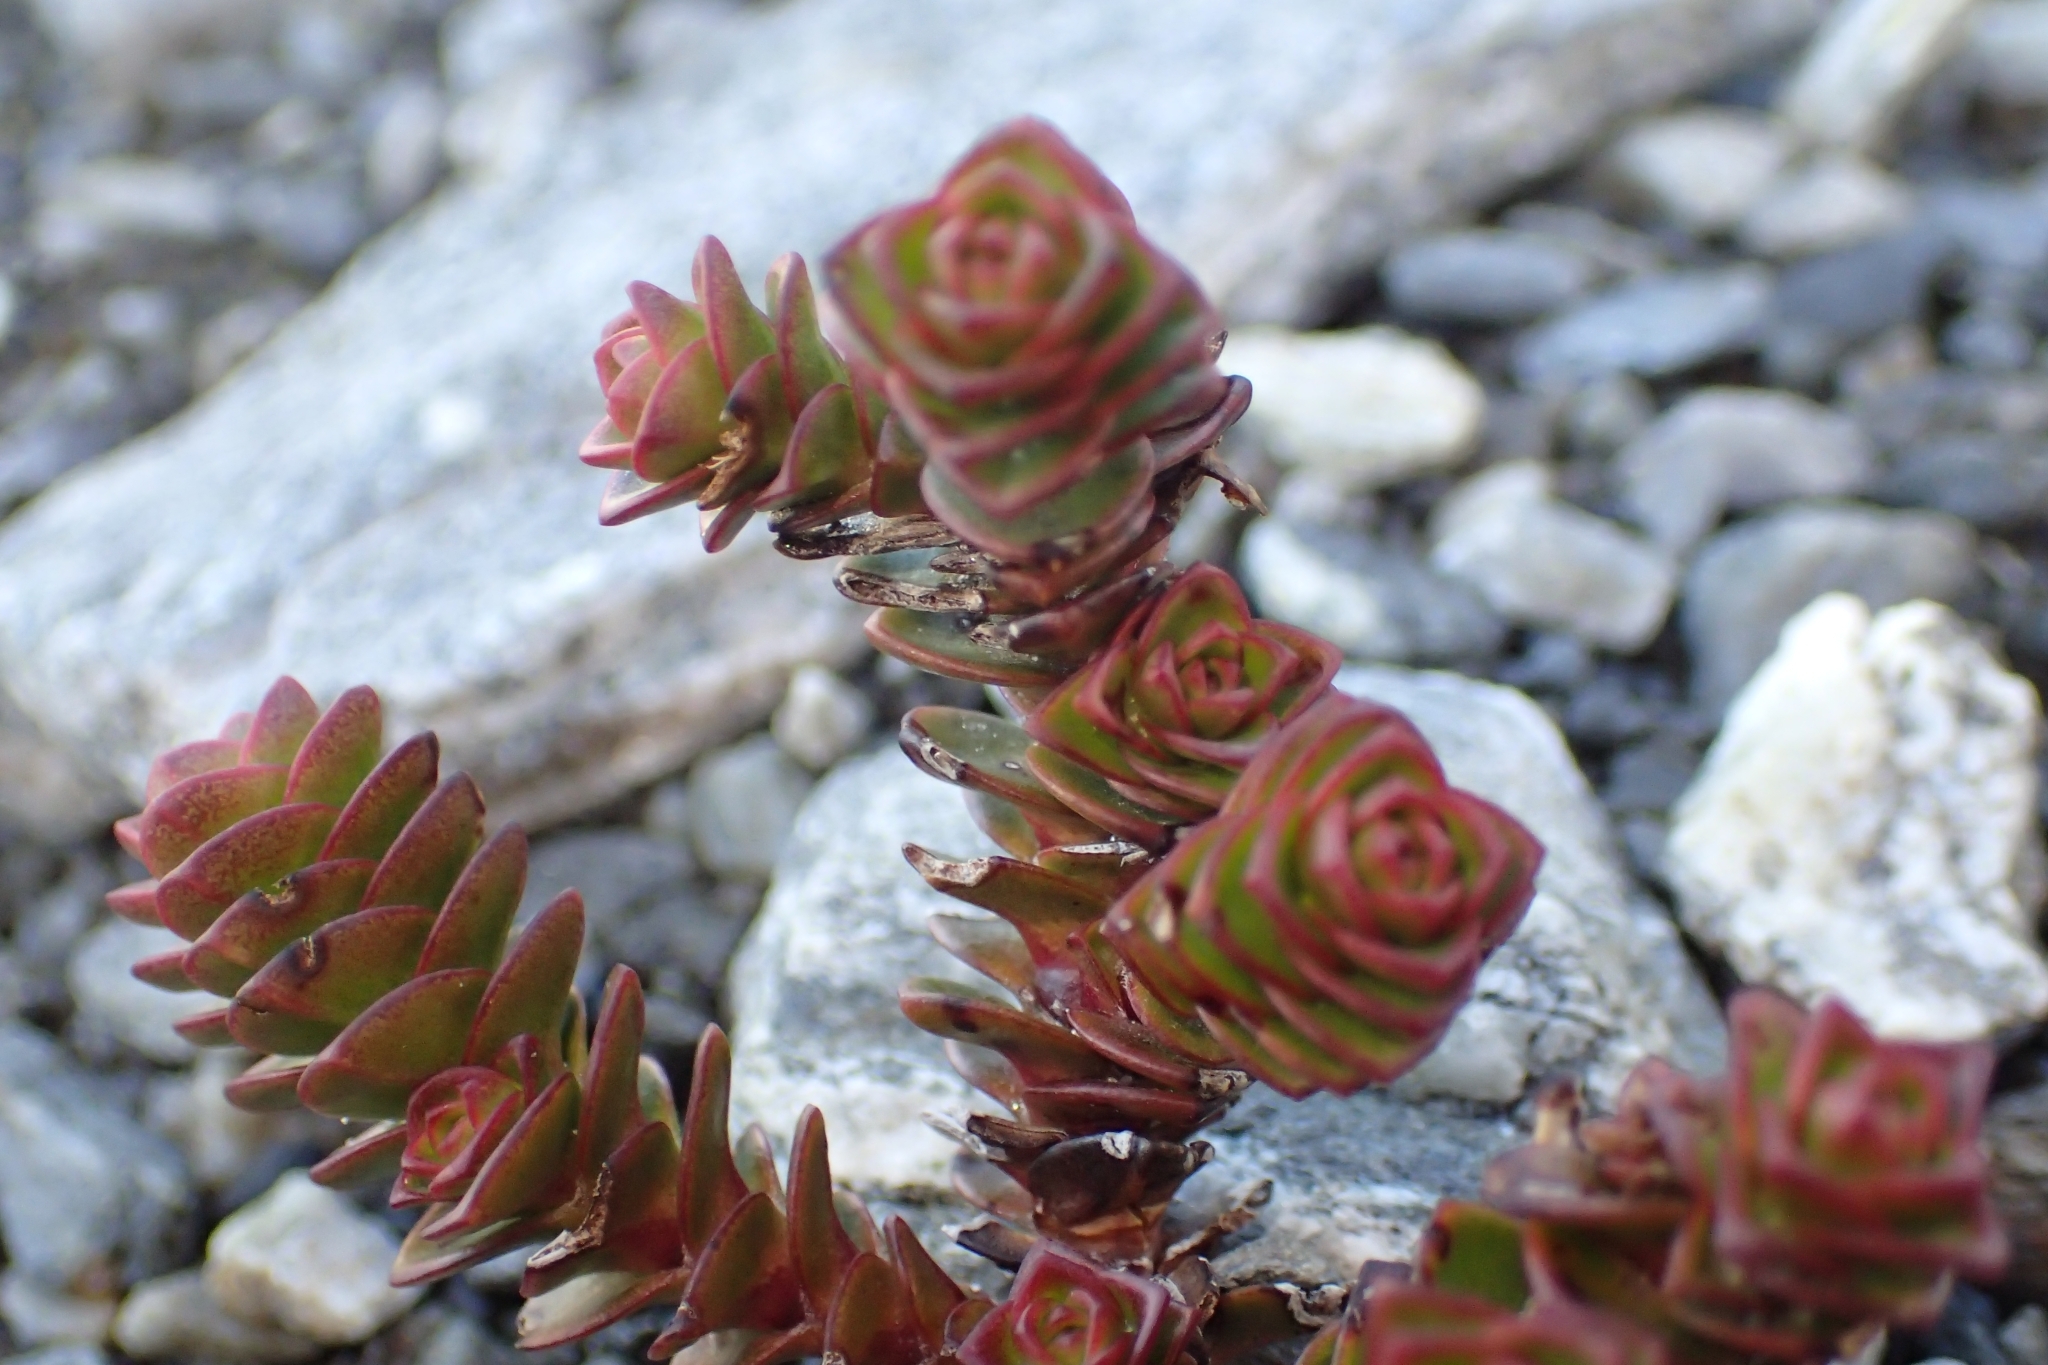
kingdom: Plantae
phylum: Tracheophyta
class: Magnoliopsida
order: Lamiales
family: Plantaginaceae
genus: Veronica
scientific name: Veronica epacridea
